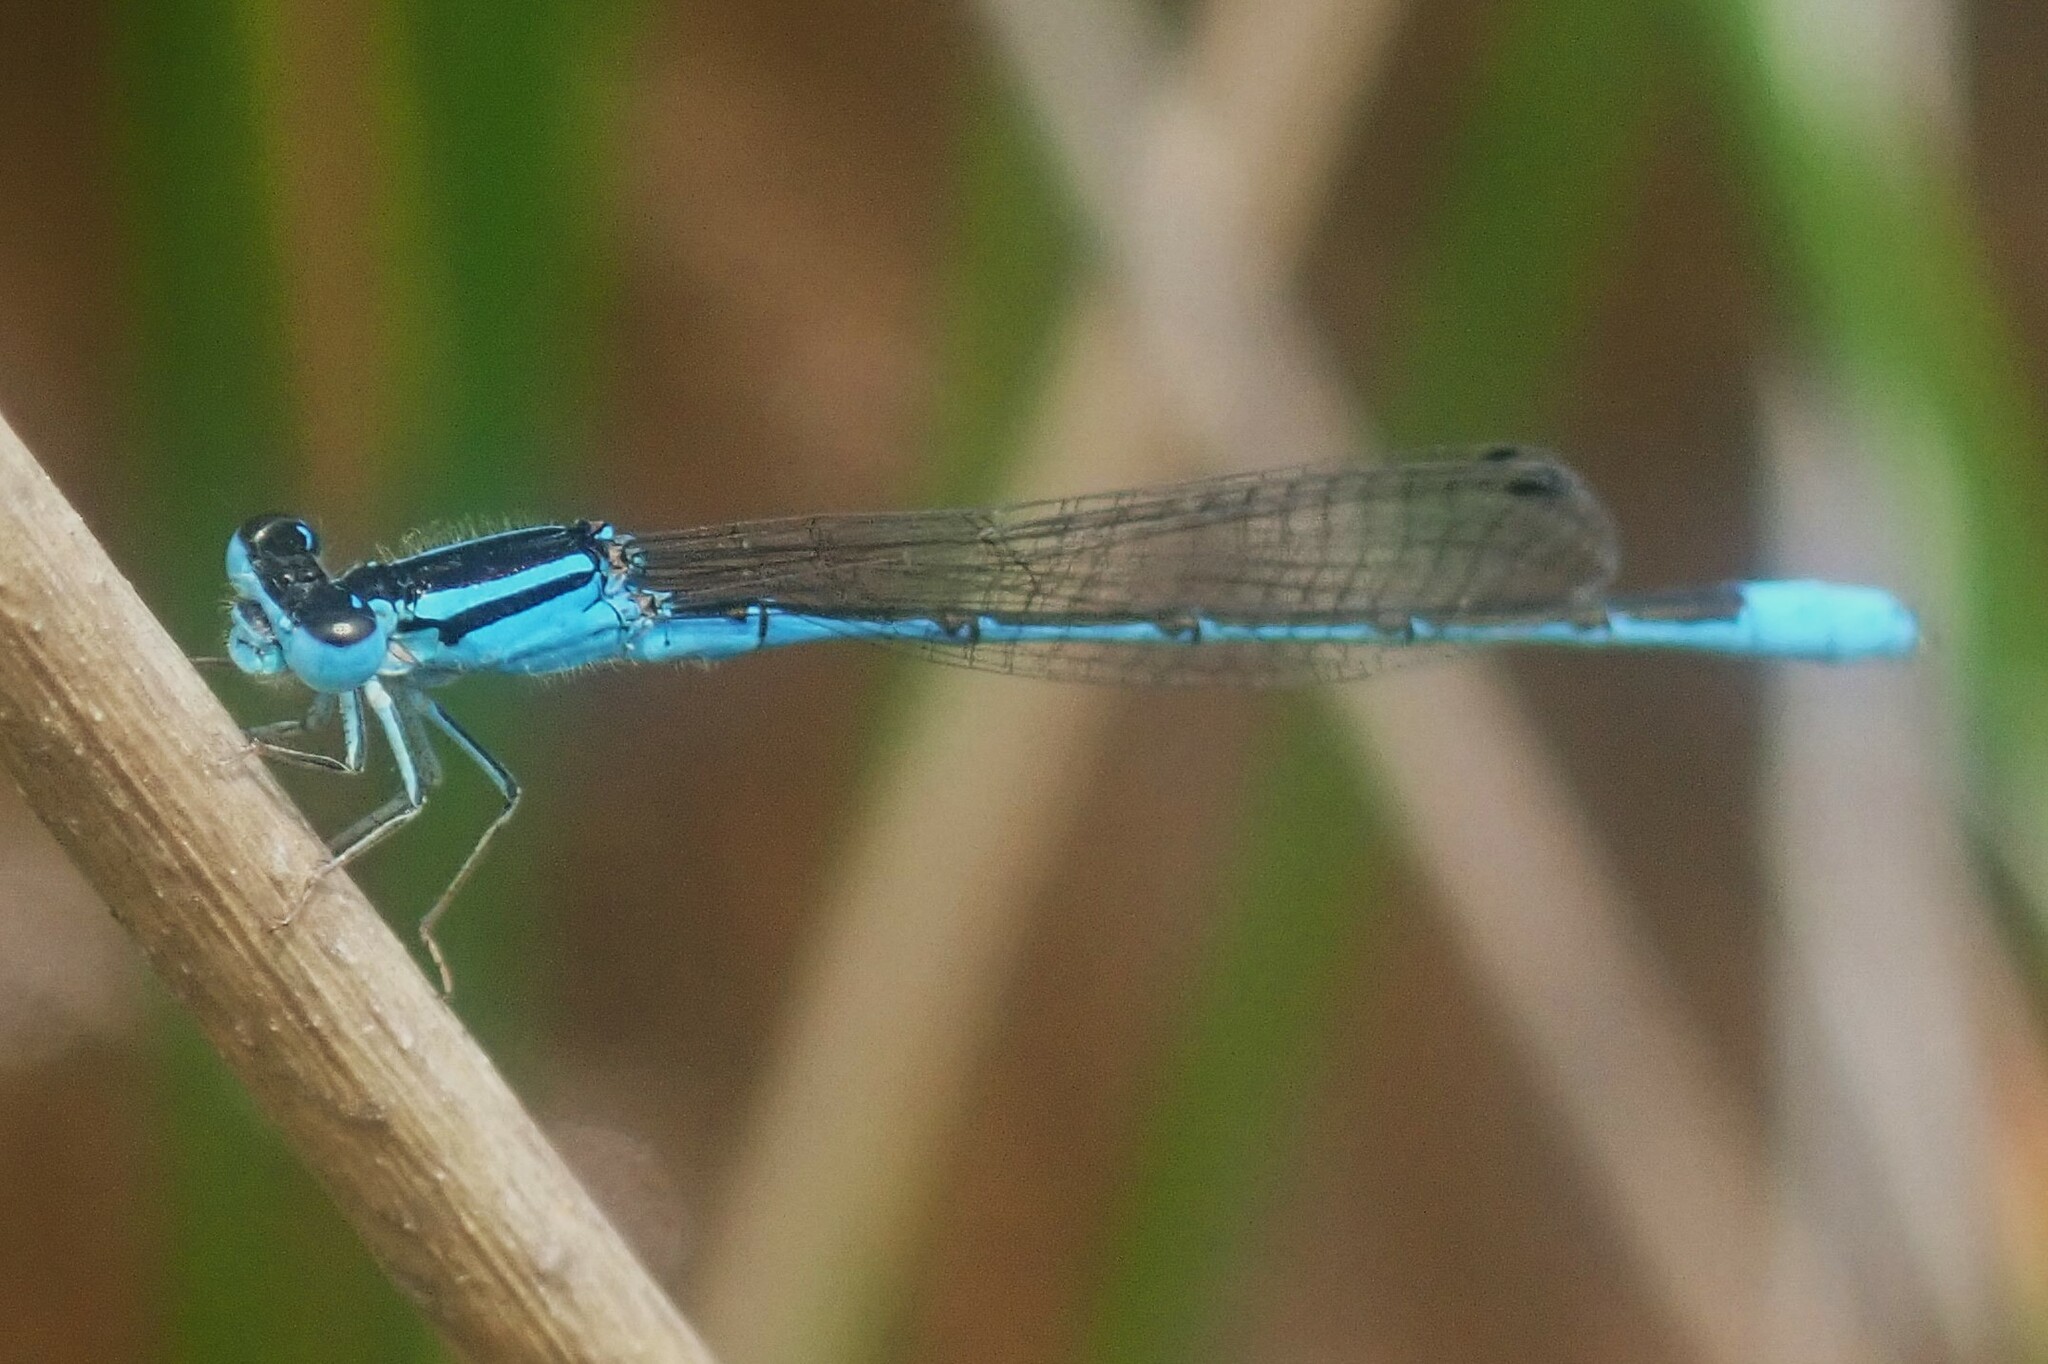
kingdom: Animalia
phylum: Arthropoda
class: Insecta
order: Odonata
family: Coenagrionidae
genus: Africallagma
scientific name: Africallagma glaucum
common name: Swamp bluet
